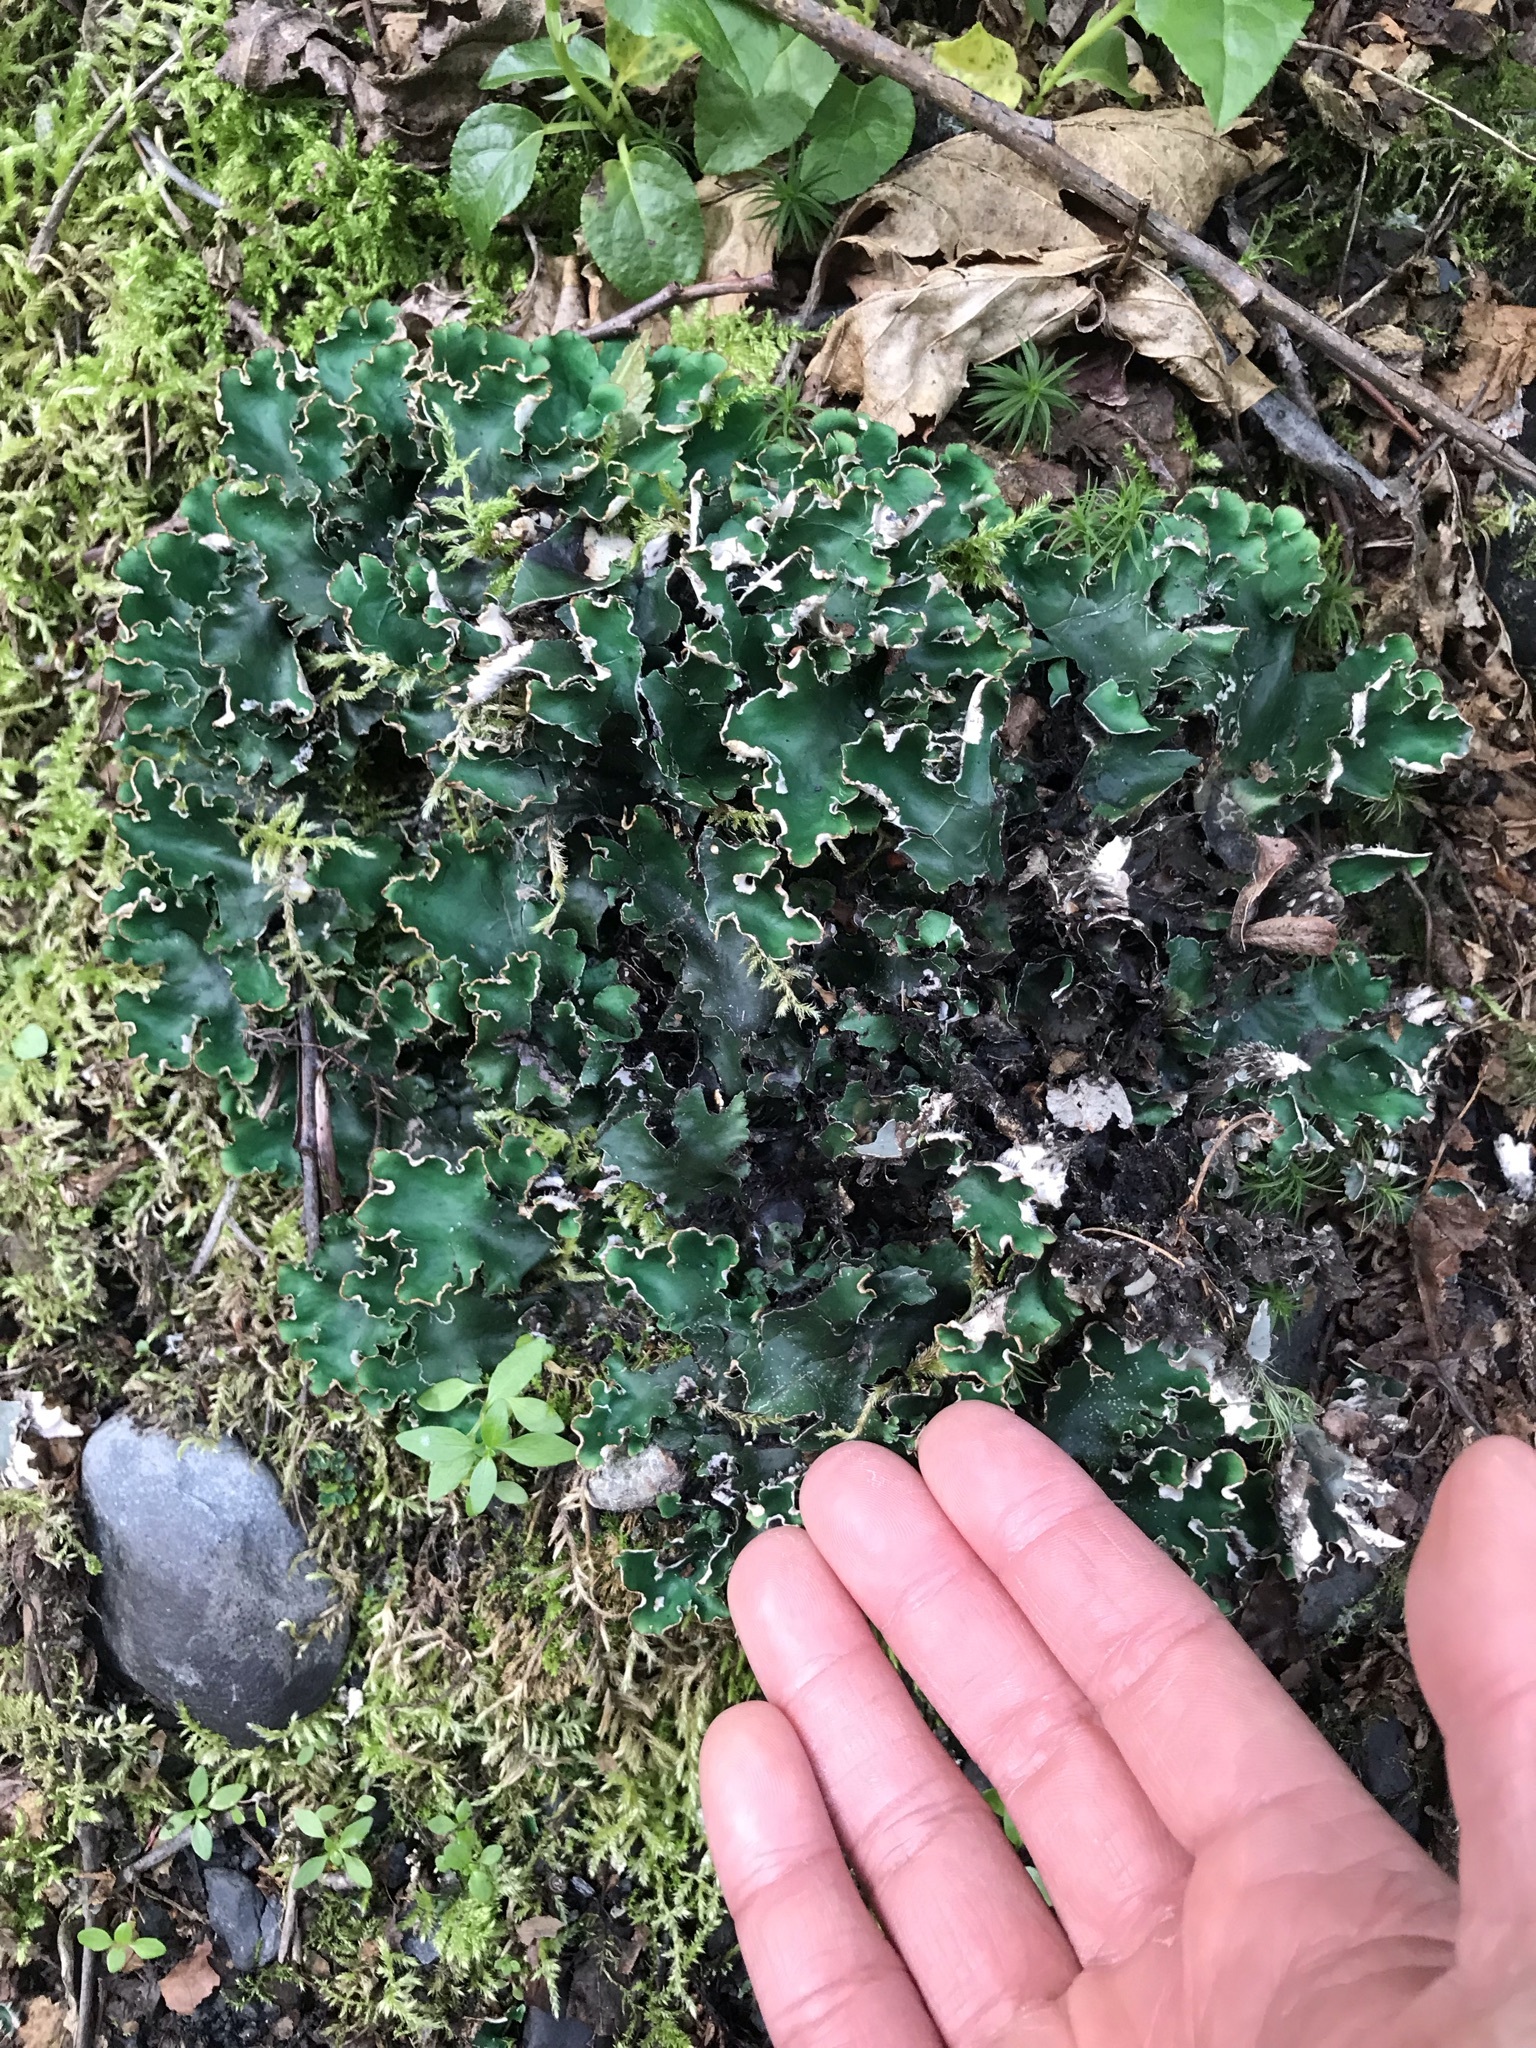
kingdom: Fungi
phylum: Ascomycota
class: Lecanoromycetes
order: Peltigerales
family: Peltigeraceae
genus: Peltigera
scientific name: Peltigera malacea
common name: Matt felt lichen
